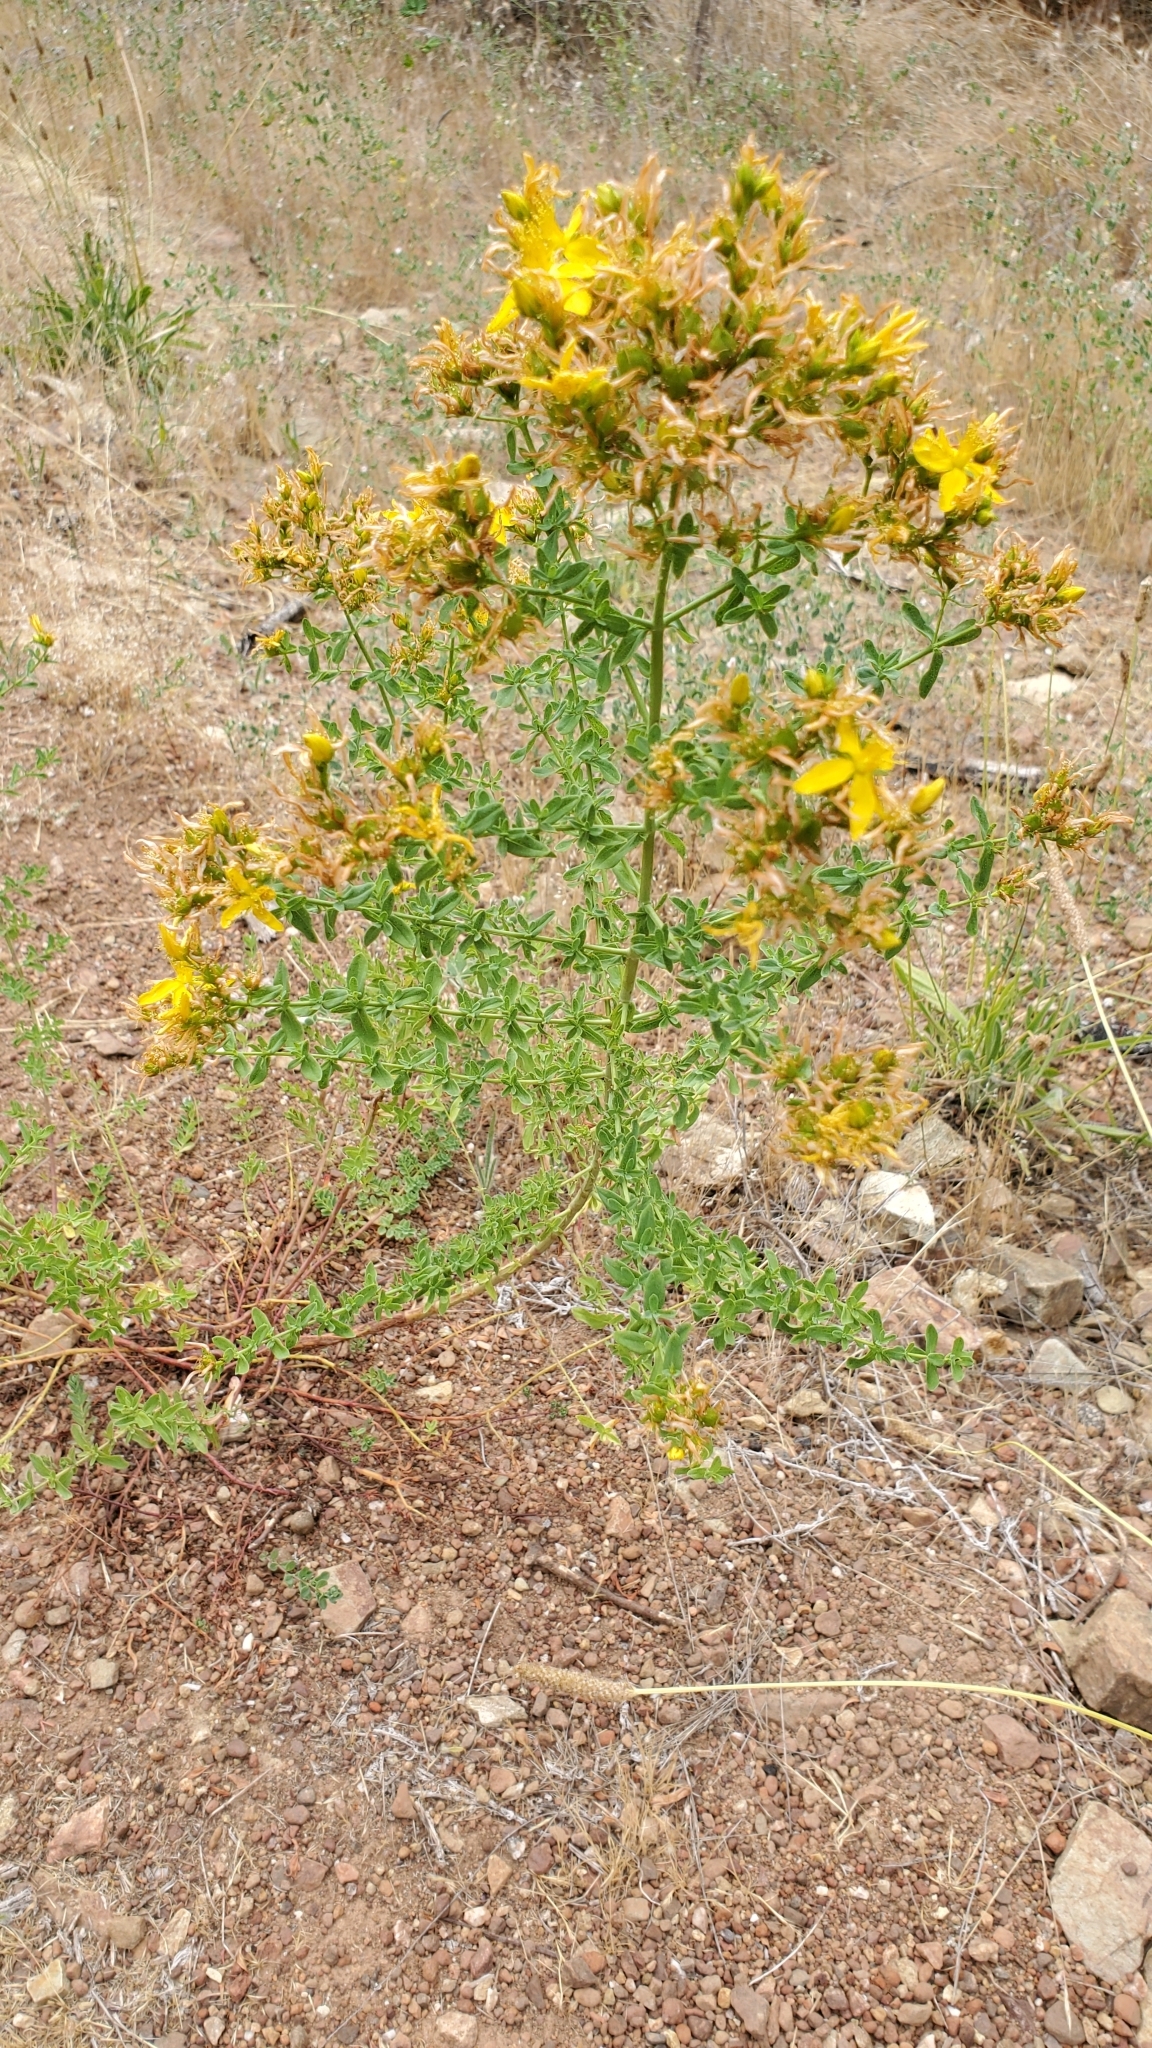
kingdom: Plantae
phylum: Tracheophyta
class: Magnoliopsida
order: Malpighiales
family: Hypericaceae
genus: Hypericum
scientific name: Hypericum perforatum
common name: Common st. johnswort
